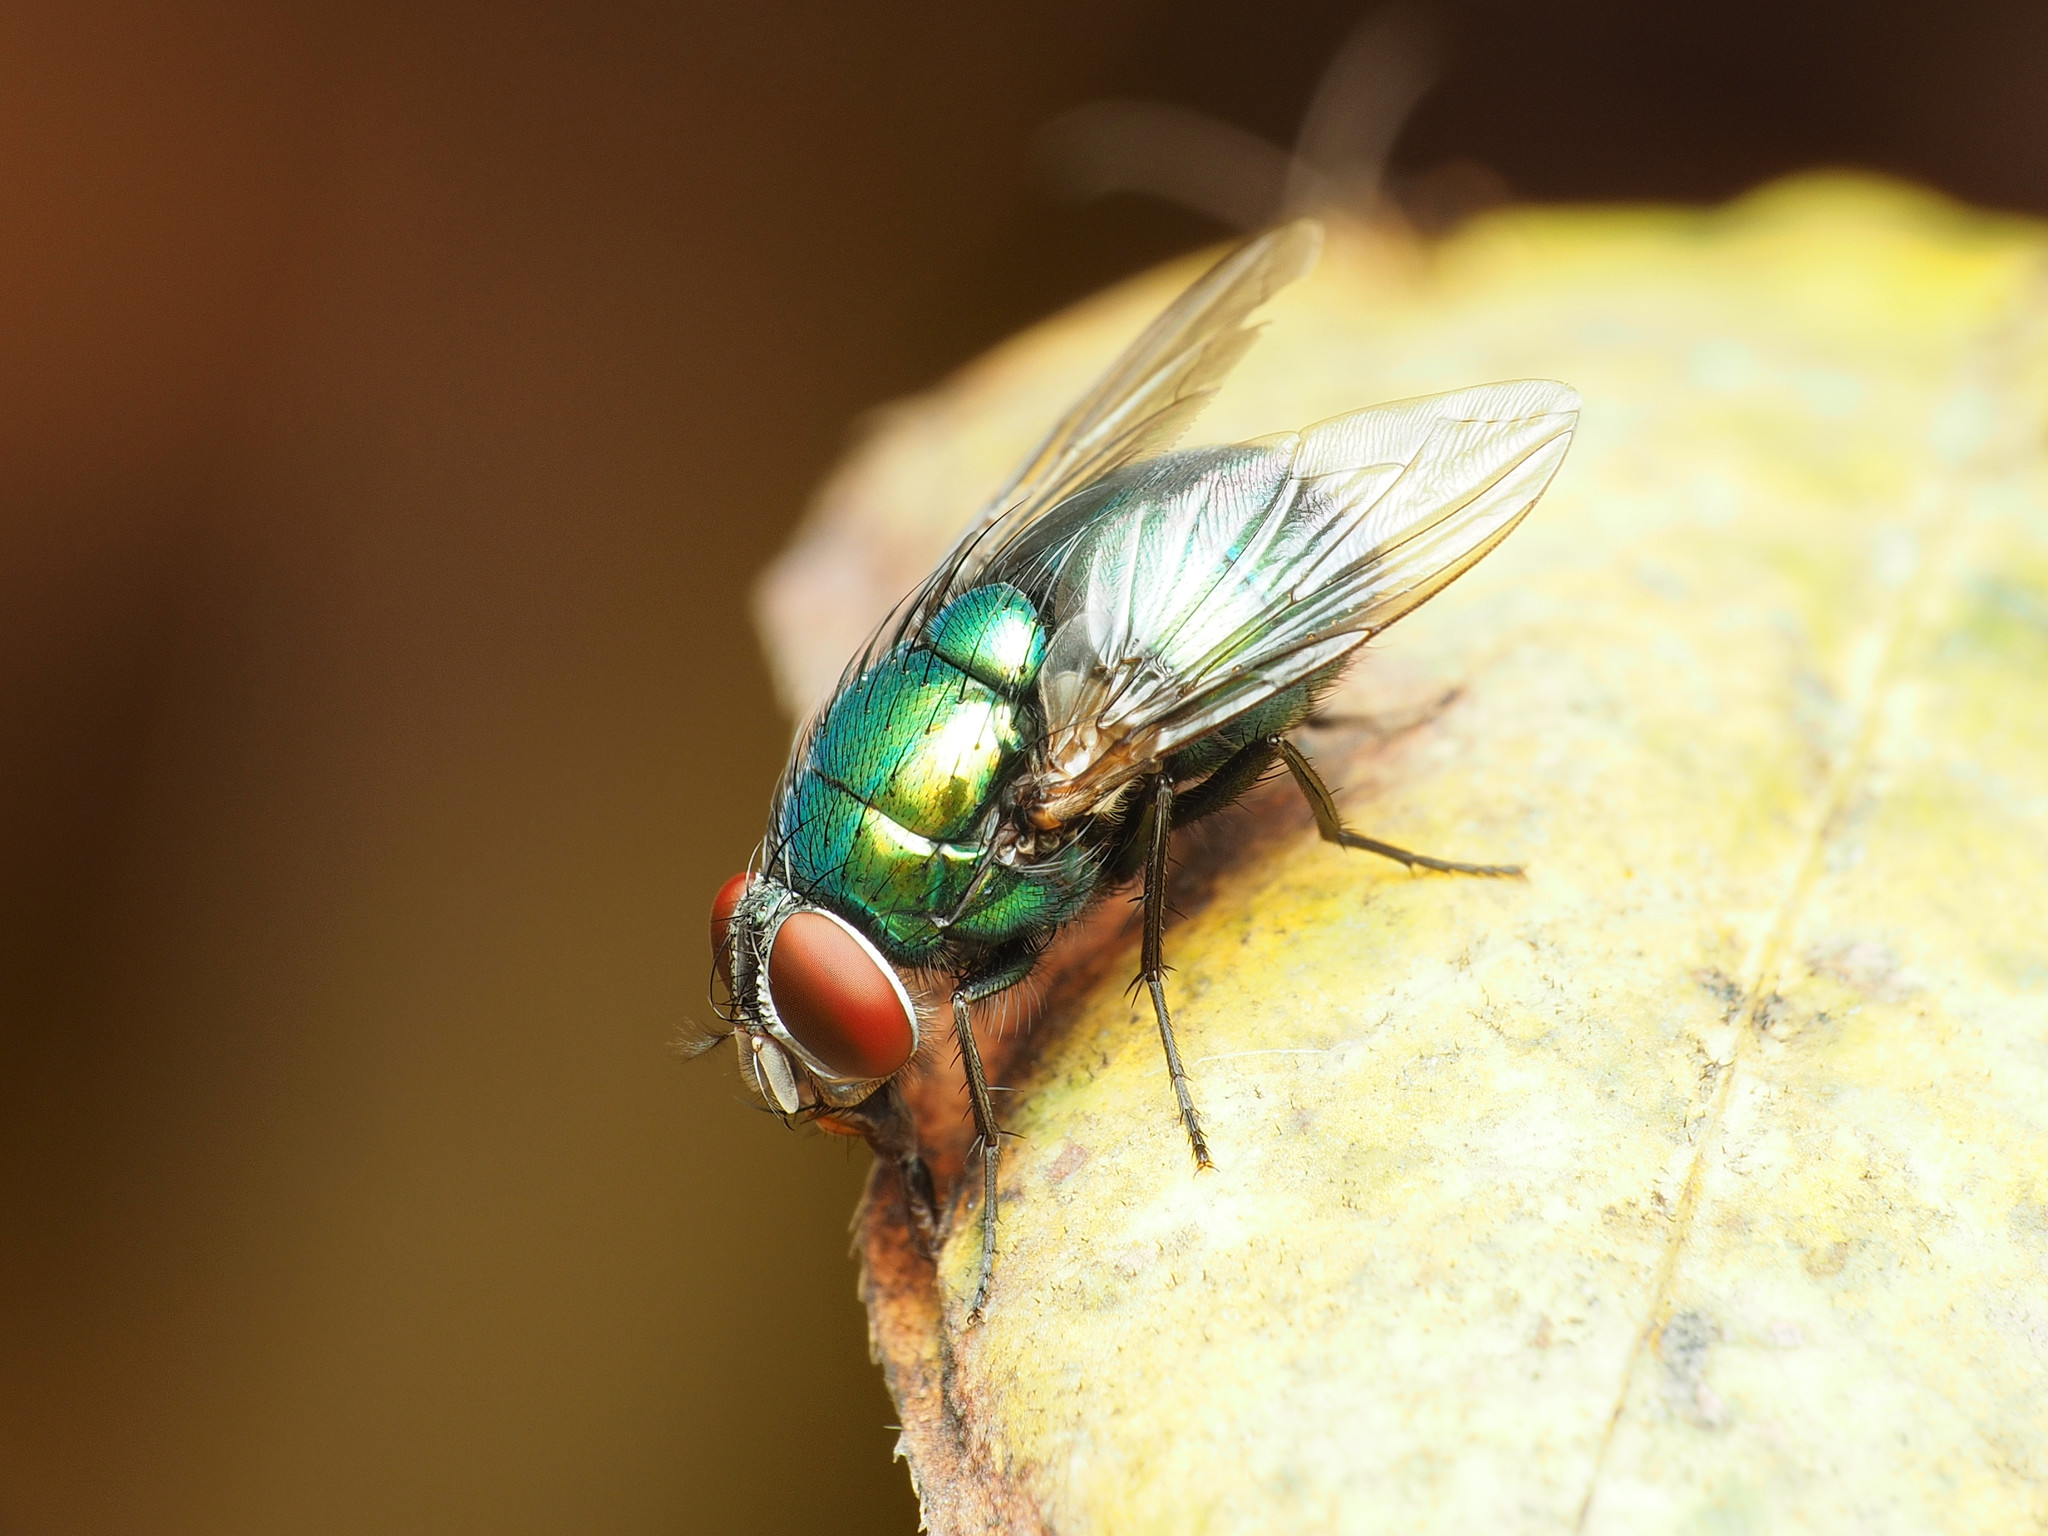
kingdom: Animalia
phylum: Arthropoda
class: Insecta
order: Diptera
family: Calliphoridae
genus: Lucilia
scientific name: Lucilia caeruleiviridis
